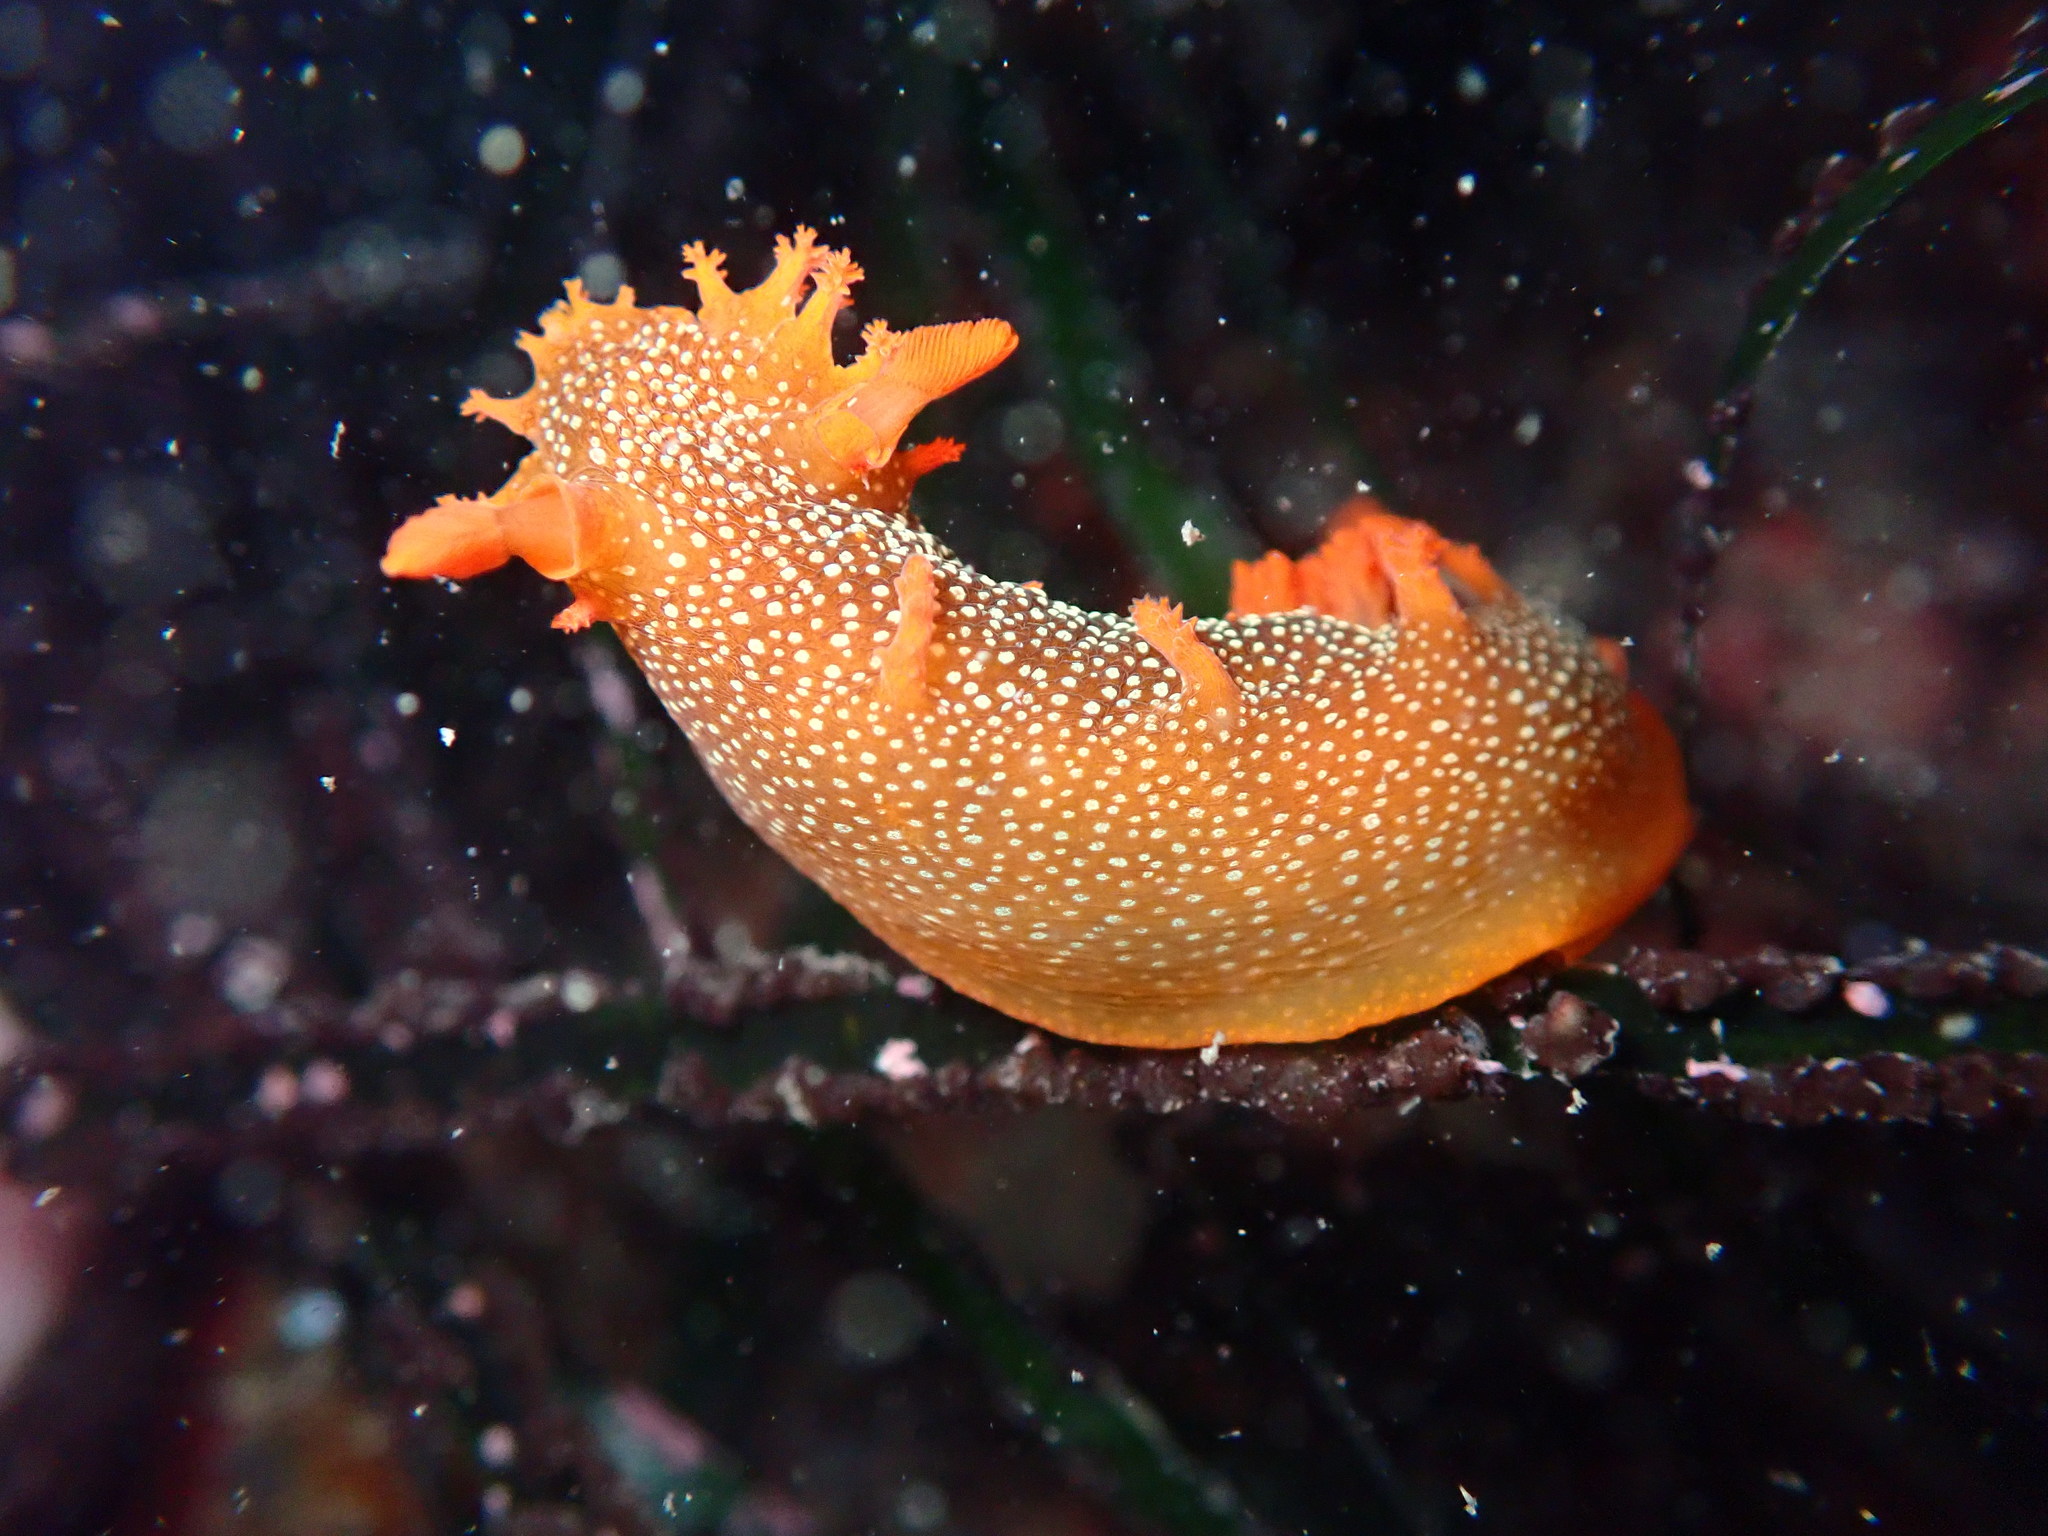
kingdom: Animalia
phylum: Mollusca
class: Gastropoda
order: Nudibranchia
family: Polyceridae
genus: Triopha
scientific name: Triopha maculata
